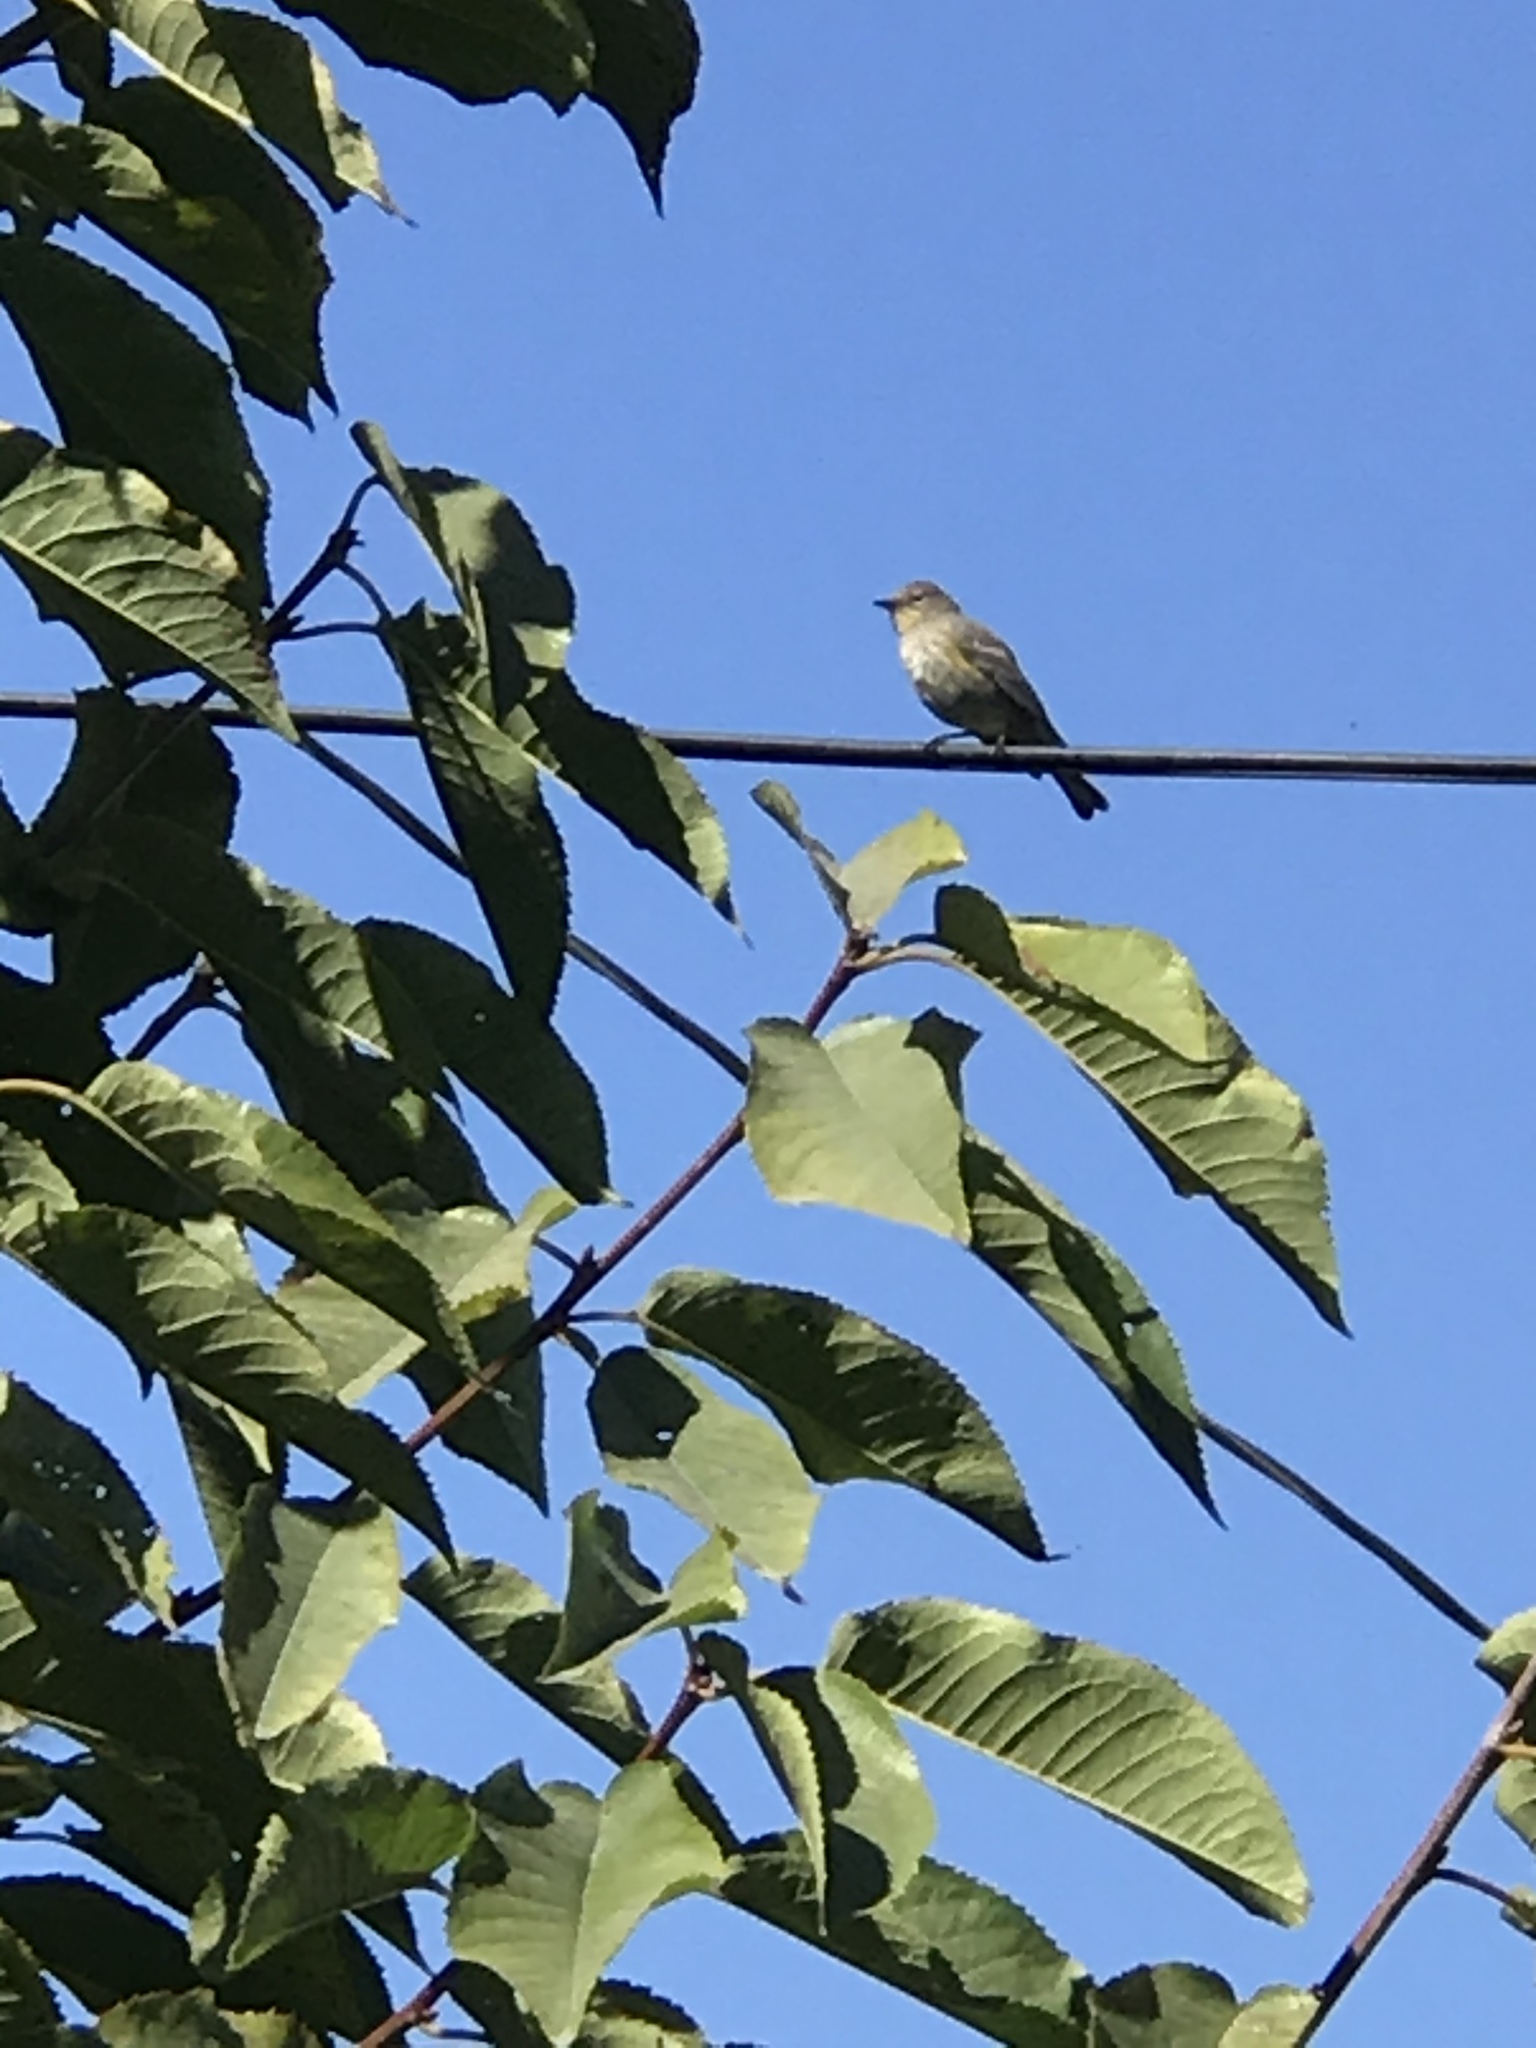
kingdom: Animalia
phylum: Chordata
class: Aves
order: Passeriformes
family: Parulidae
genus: Setophaga
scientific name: Setophaga coronata
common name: Myrtle warbler
